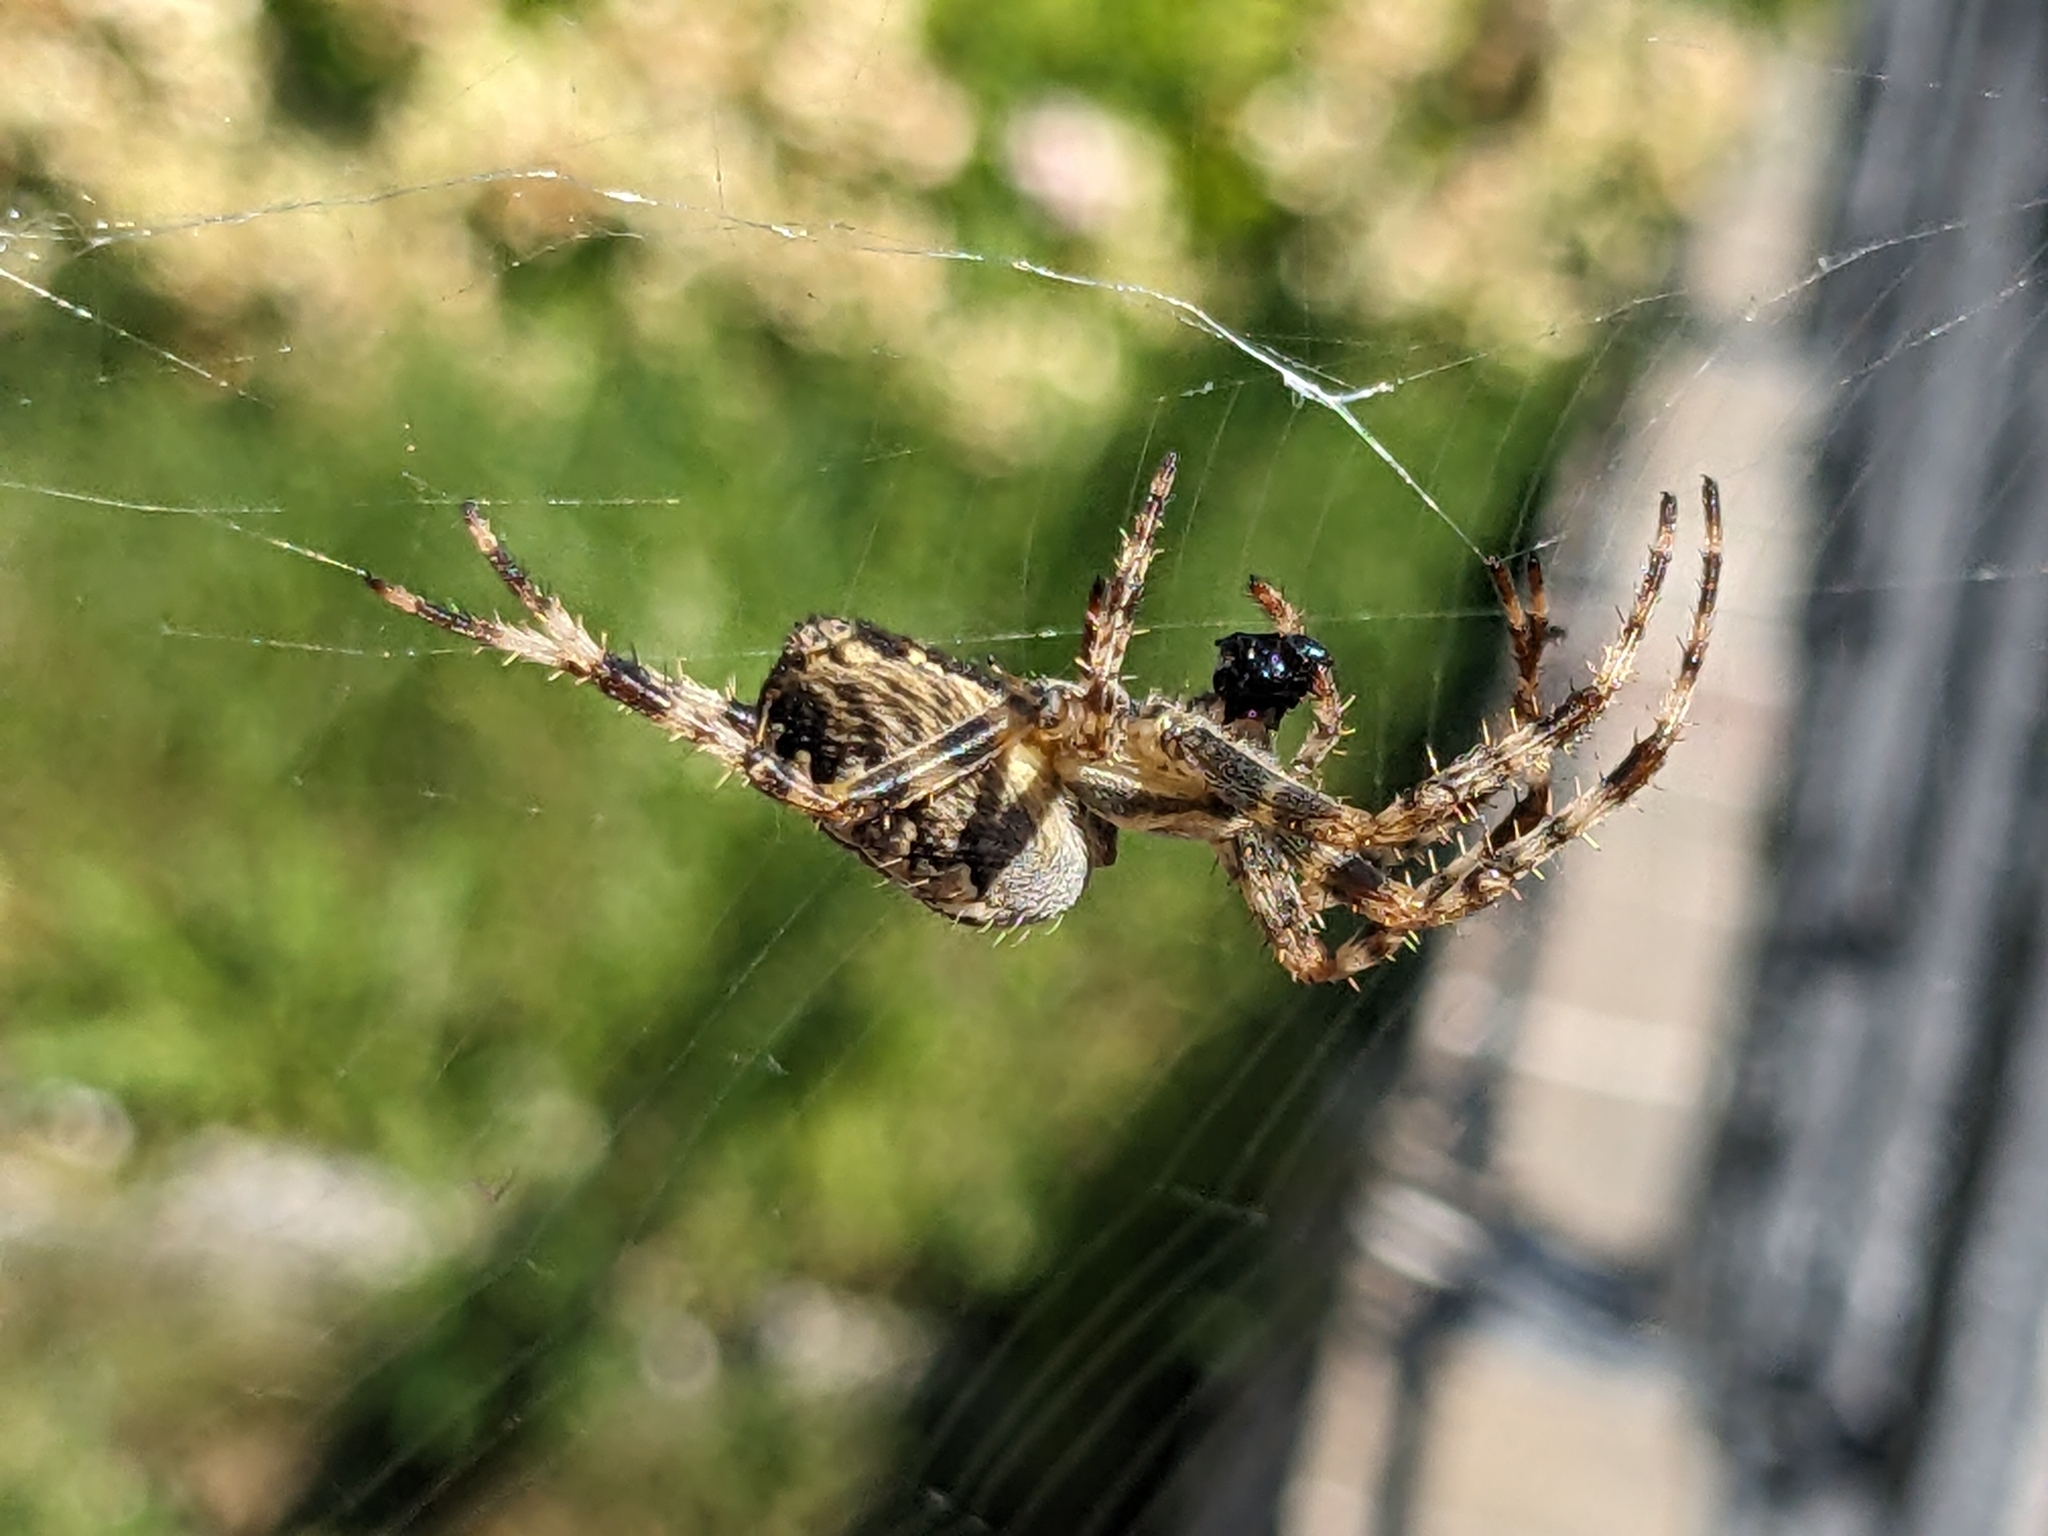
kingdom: Animalia
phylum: Arthropoda
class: Arachnida
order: Araneae
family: Araneidae
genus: Araneus
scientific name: Araneus diadematus
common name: Cross orbweaver
